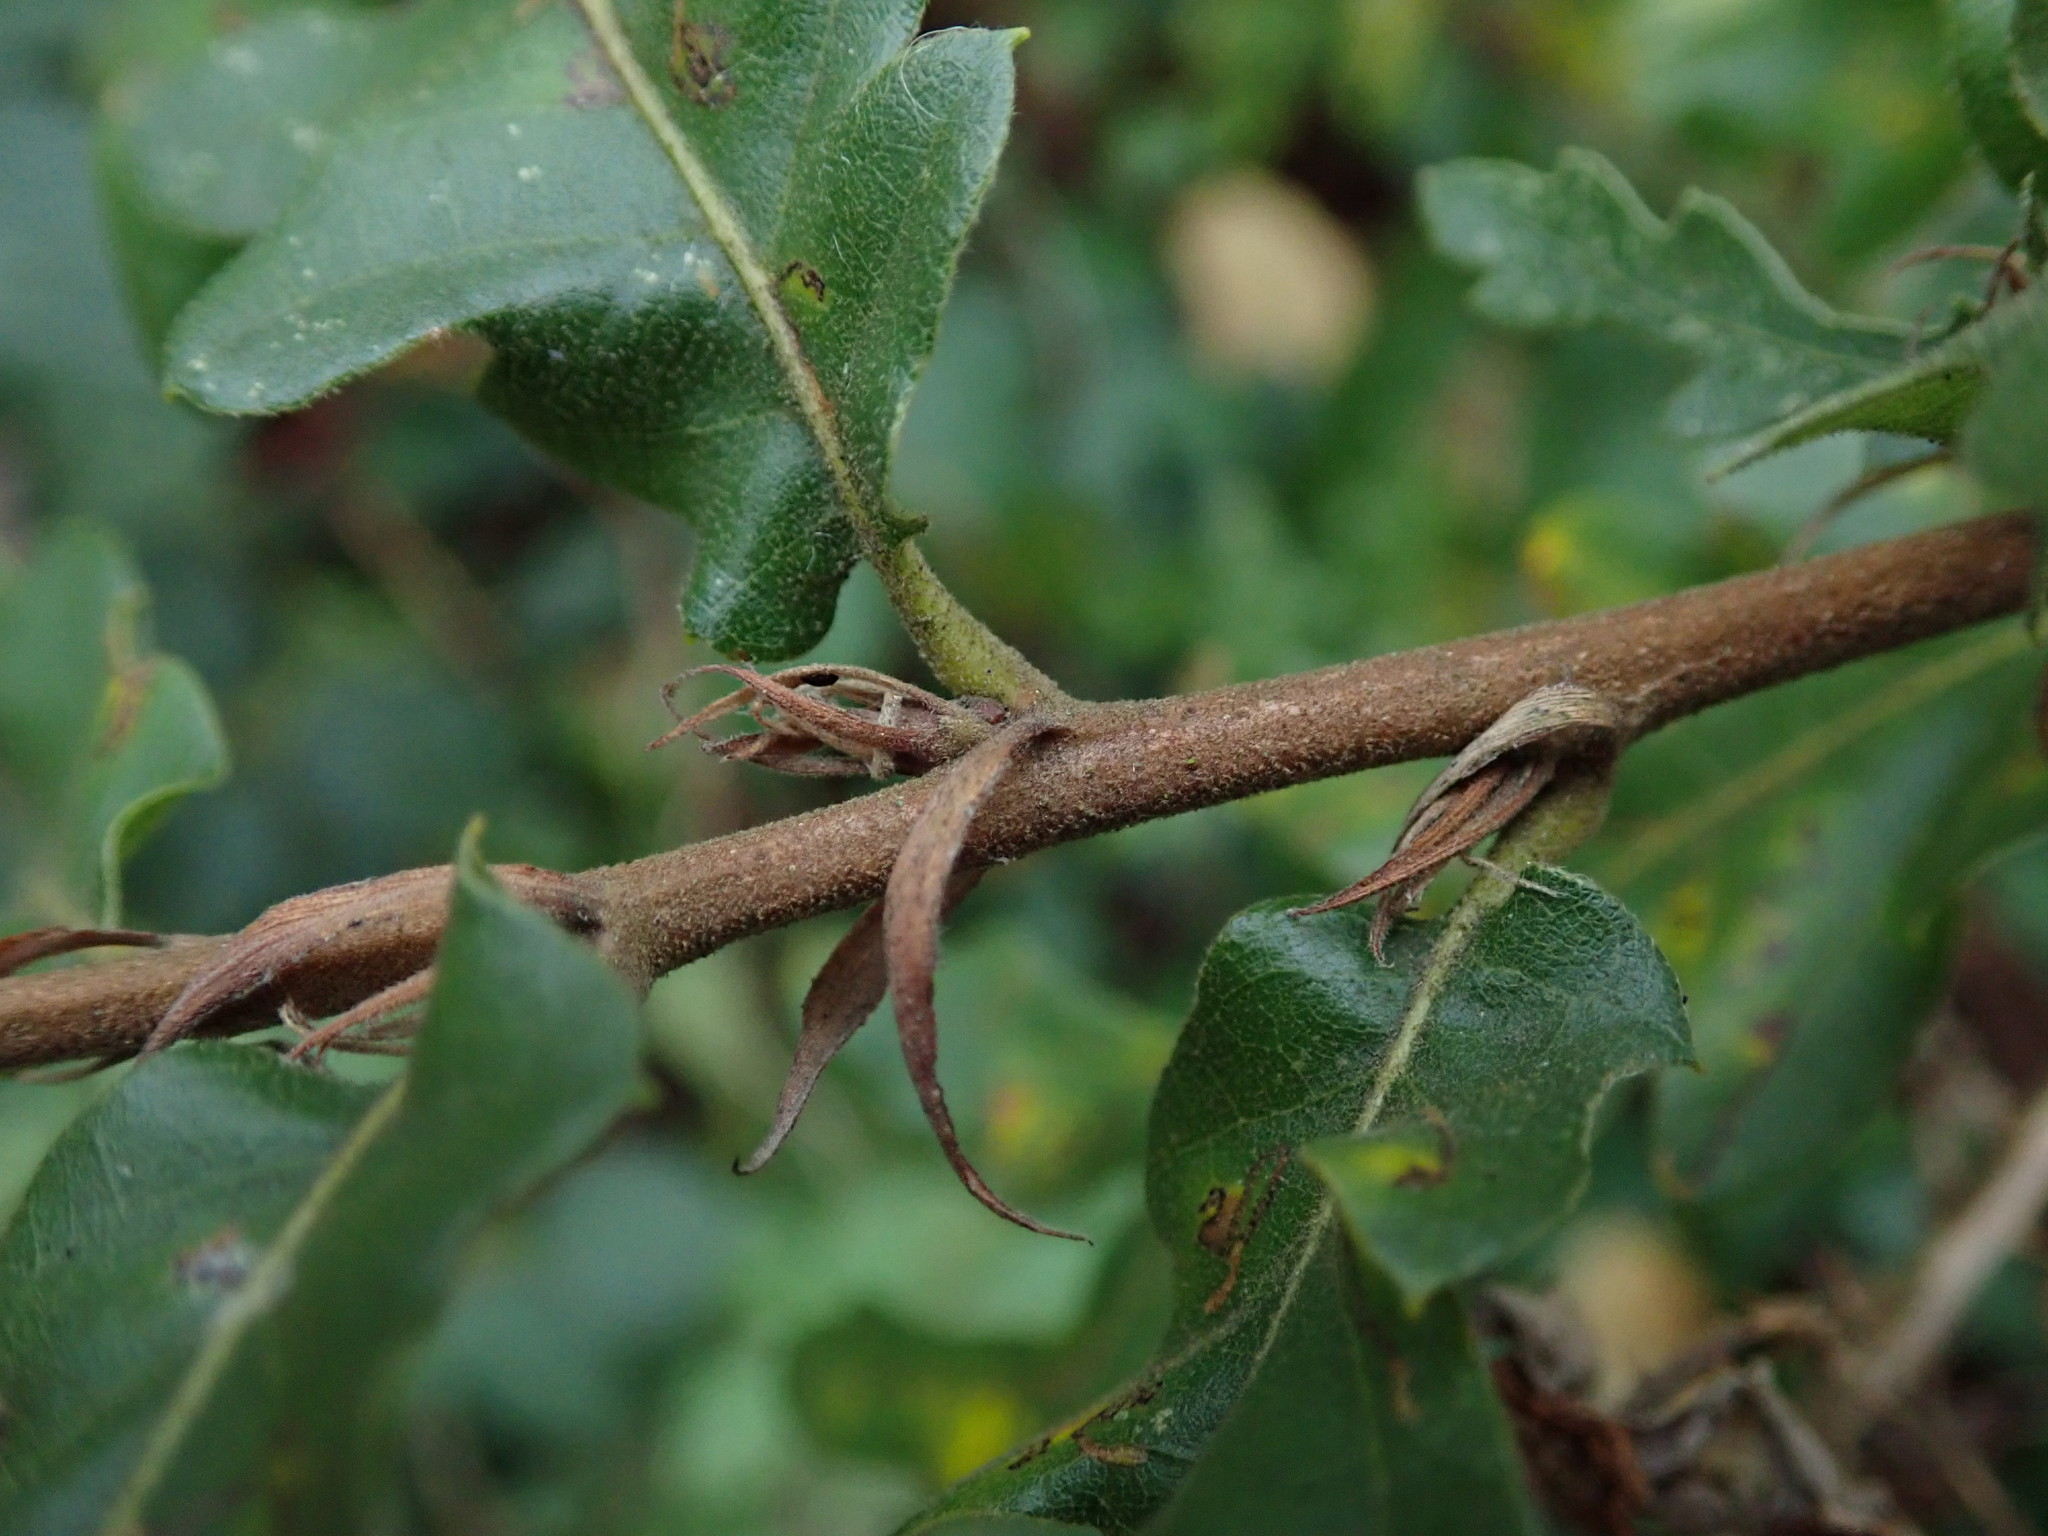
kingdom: Plantae
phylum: Tracheophyta
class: Magnoliopsida
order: Fagales
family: Fagaceae
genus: Quercus
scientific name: Quercus cerris
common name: Turkey oak
